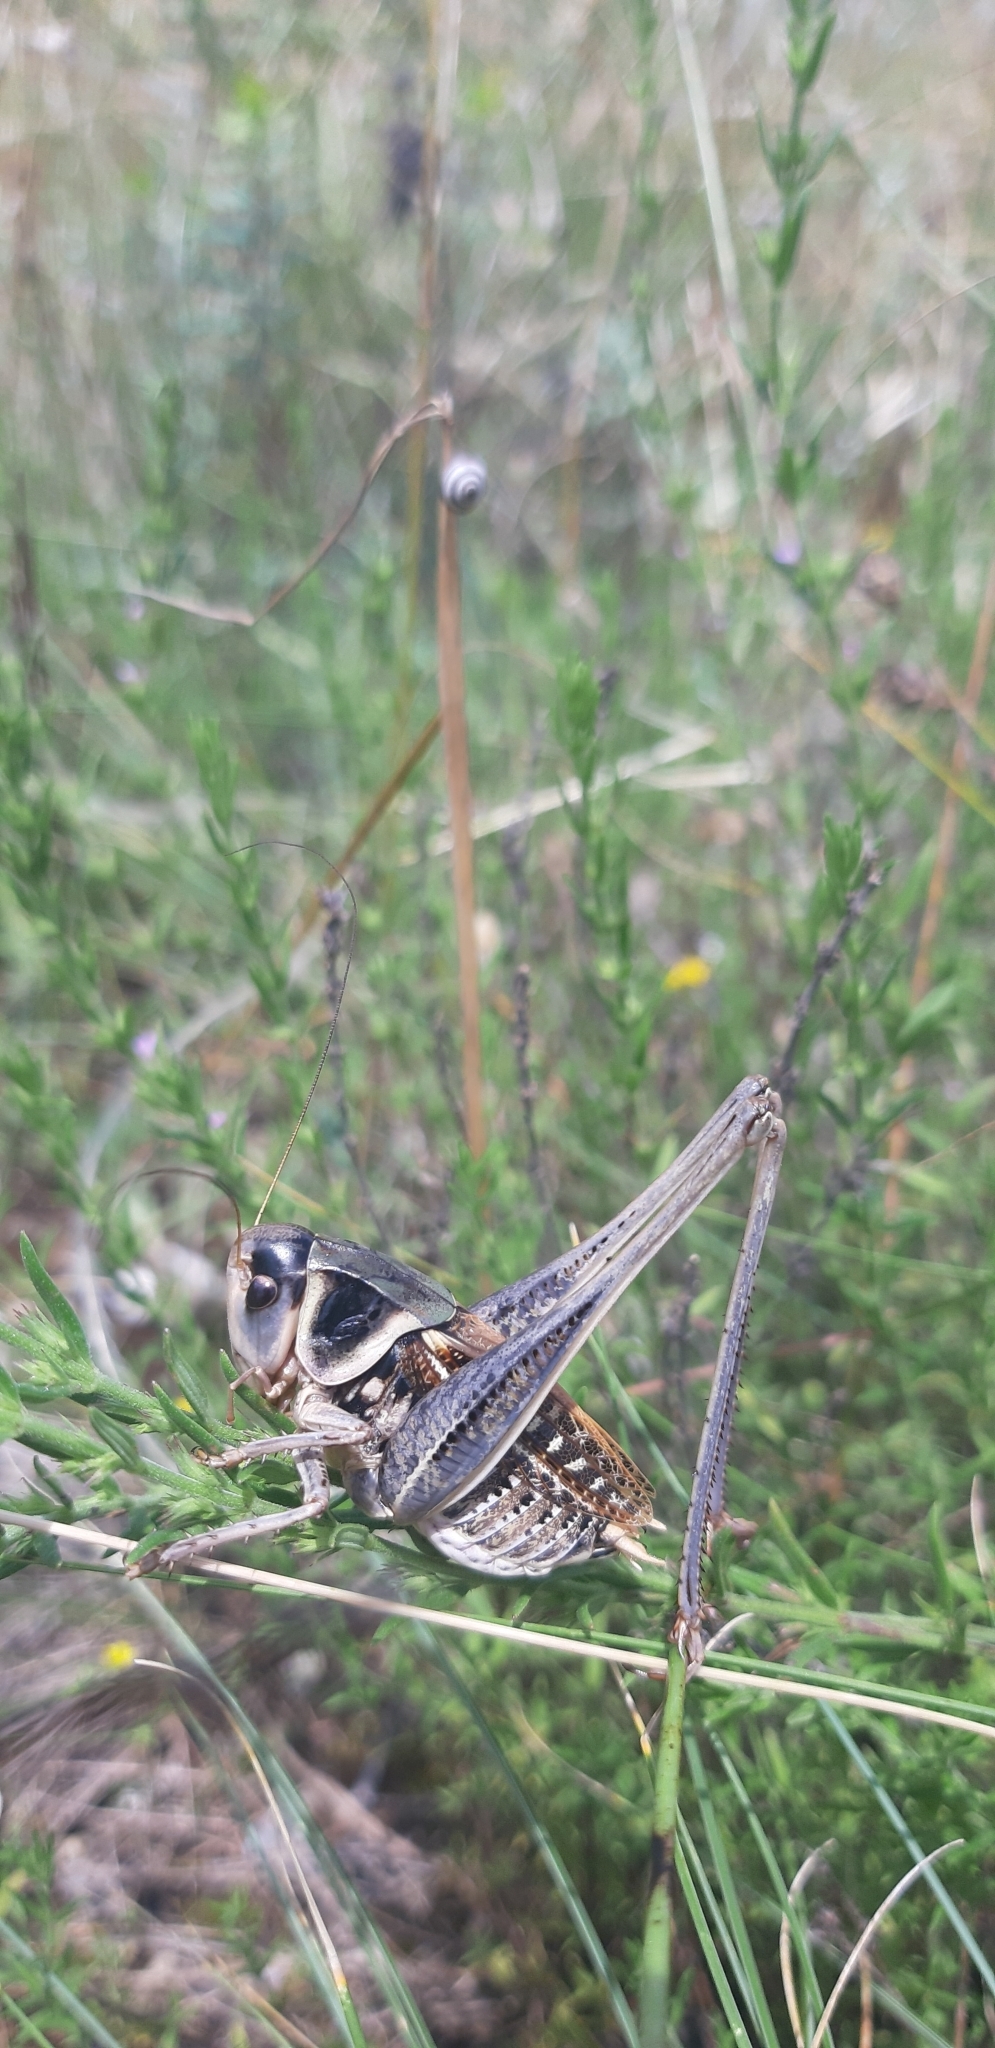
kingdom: Animalia
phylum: Arthropoda
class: Insecta
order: Orthoptera
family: Tettigoniidae
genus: Decticus
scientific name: Decticus loudoni
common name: Apulian wart-biter
